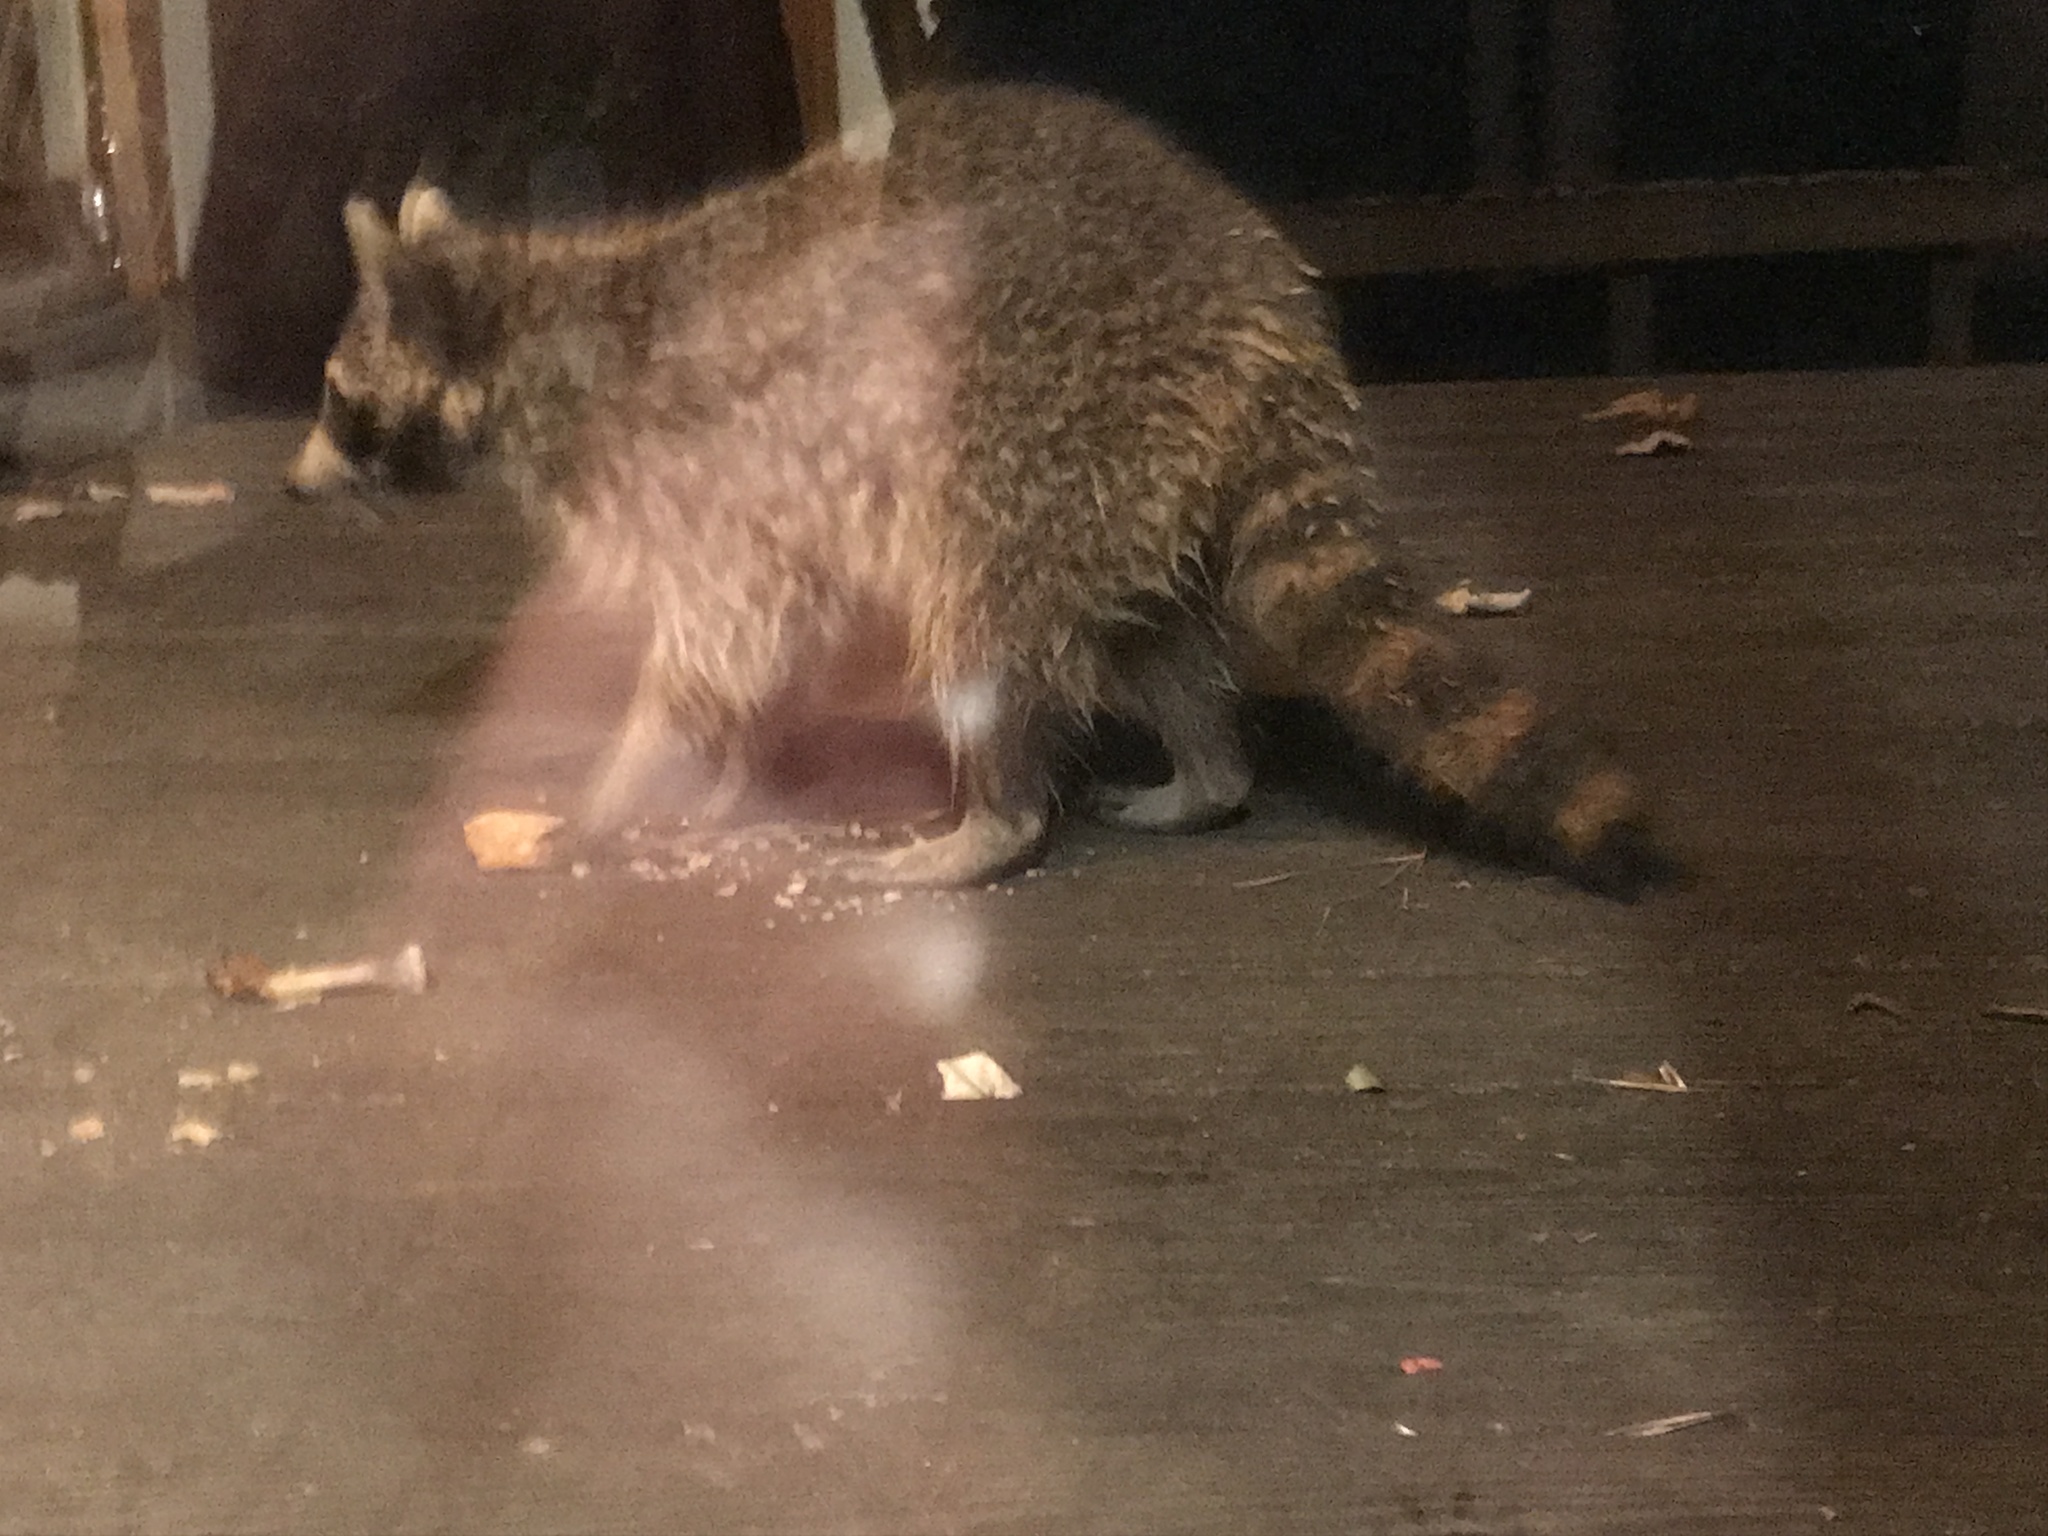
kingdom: Animalia
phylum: Chordata
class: Mammalia
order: Carnivora
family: Procyonidae
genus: Procyon
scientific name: Procyon lotor
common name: Raccoon
